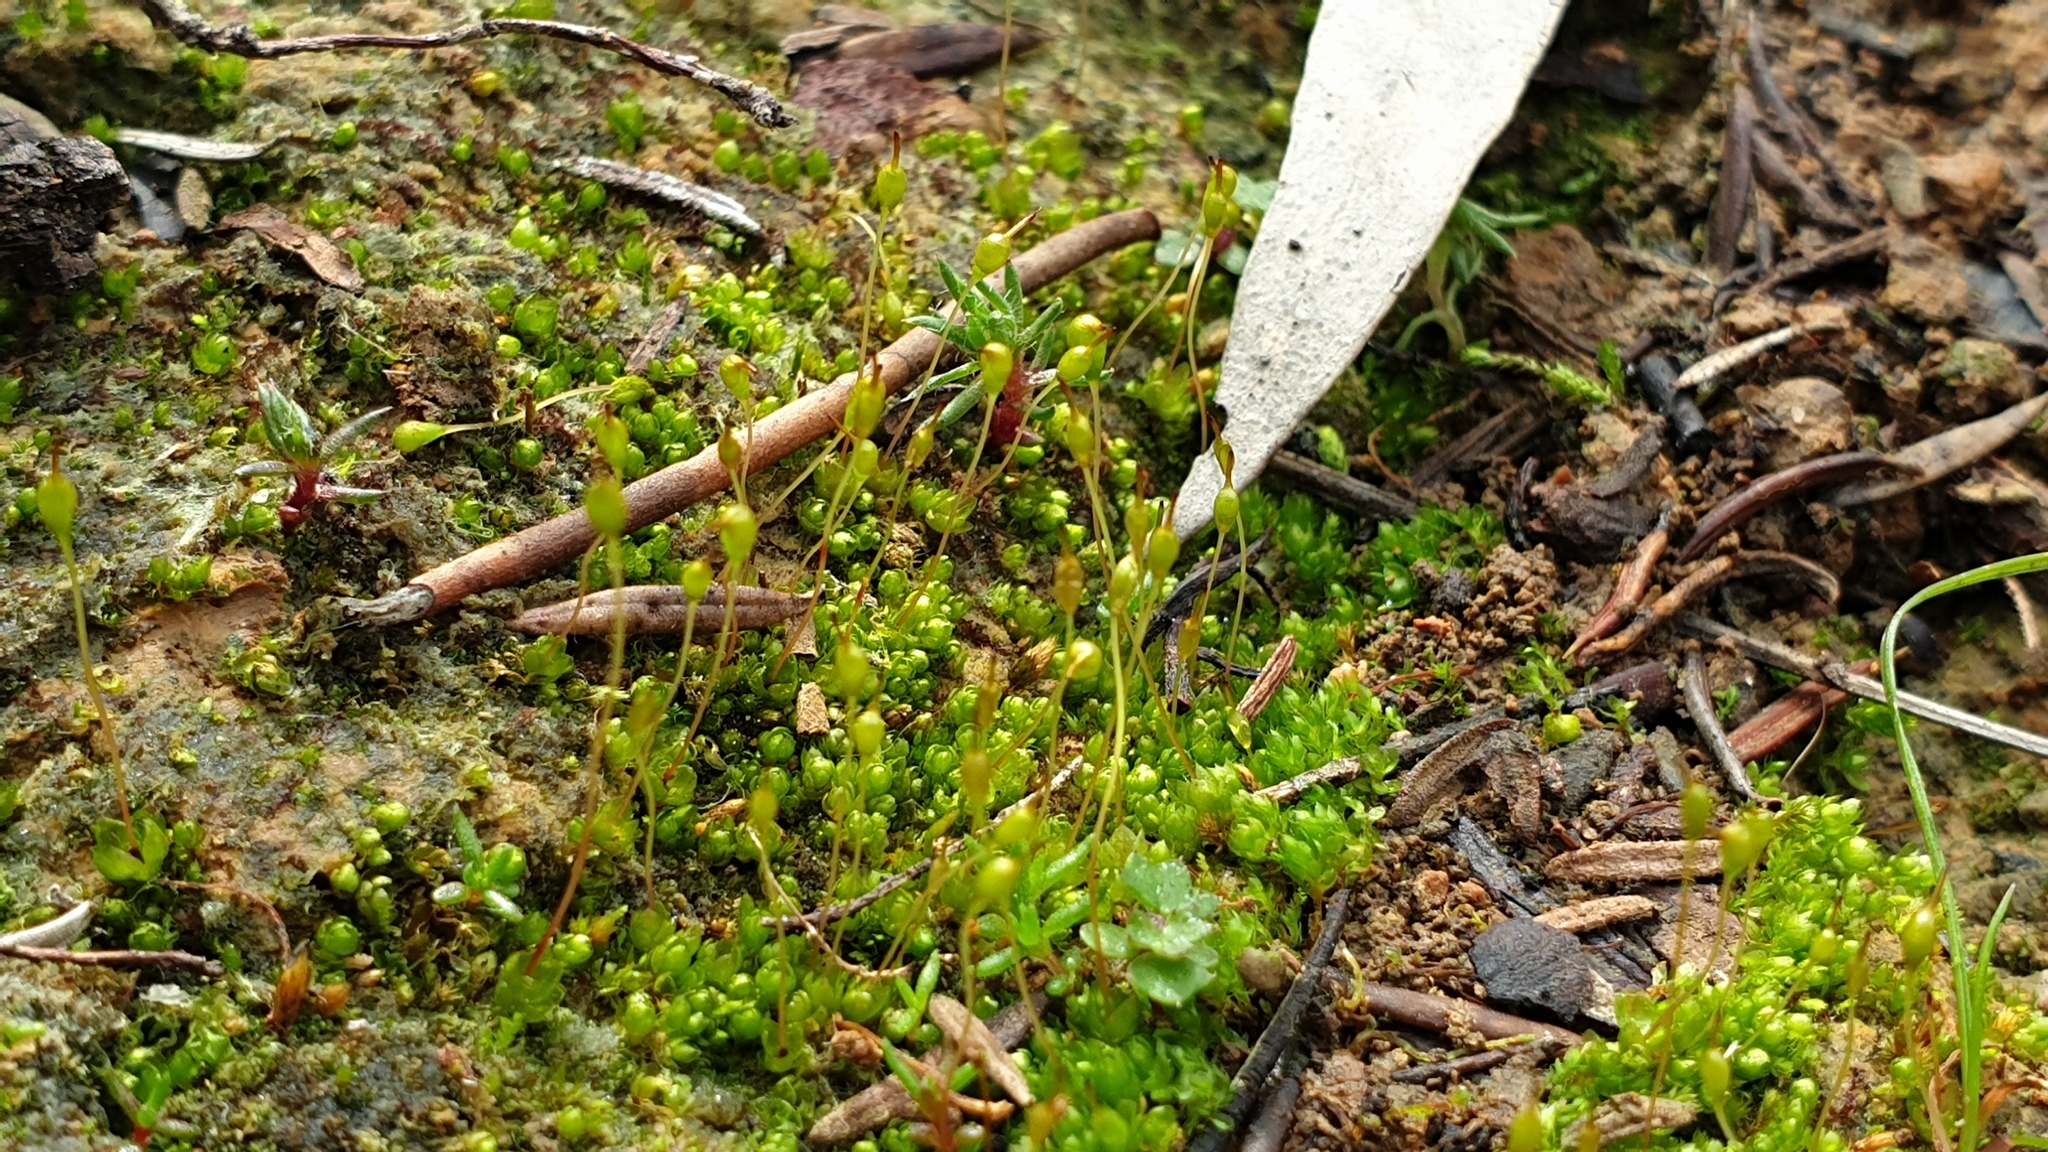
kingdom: Plantae
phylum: Bryophyta
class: Bryopsida
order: Funariales
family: Funariaceae
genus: Entosthodon
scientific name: Entosthodon subnudus
